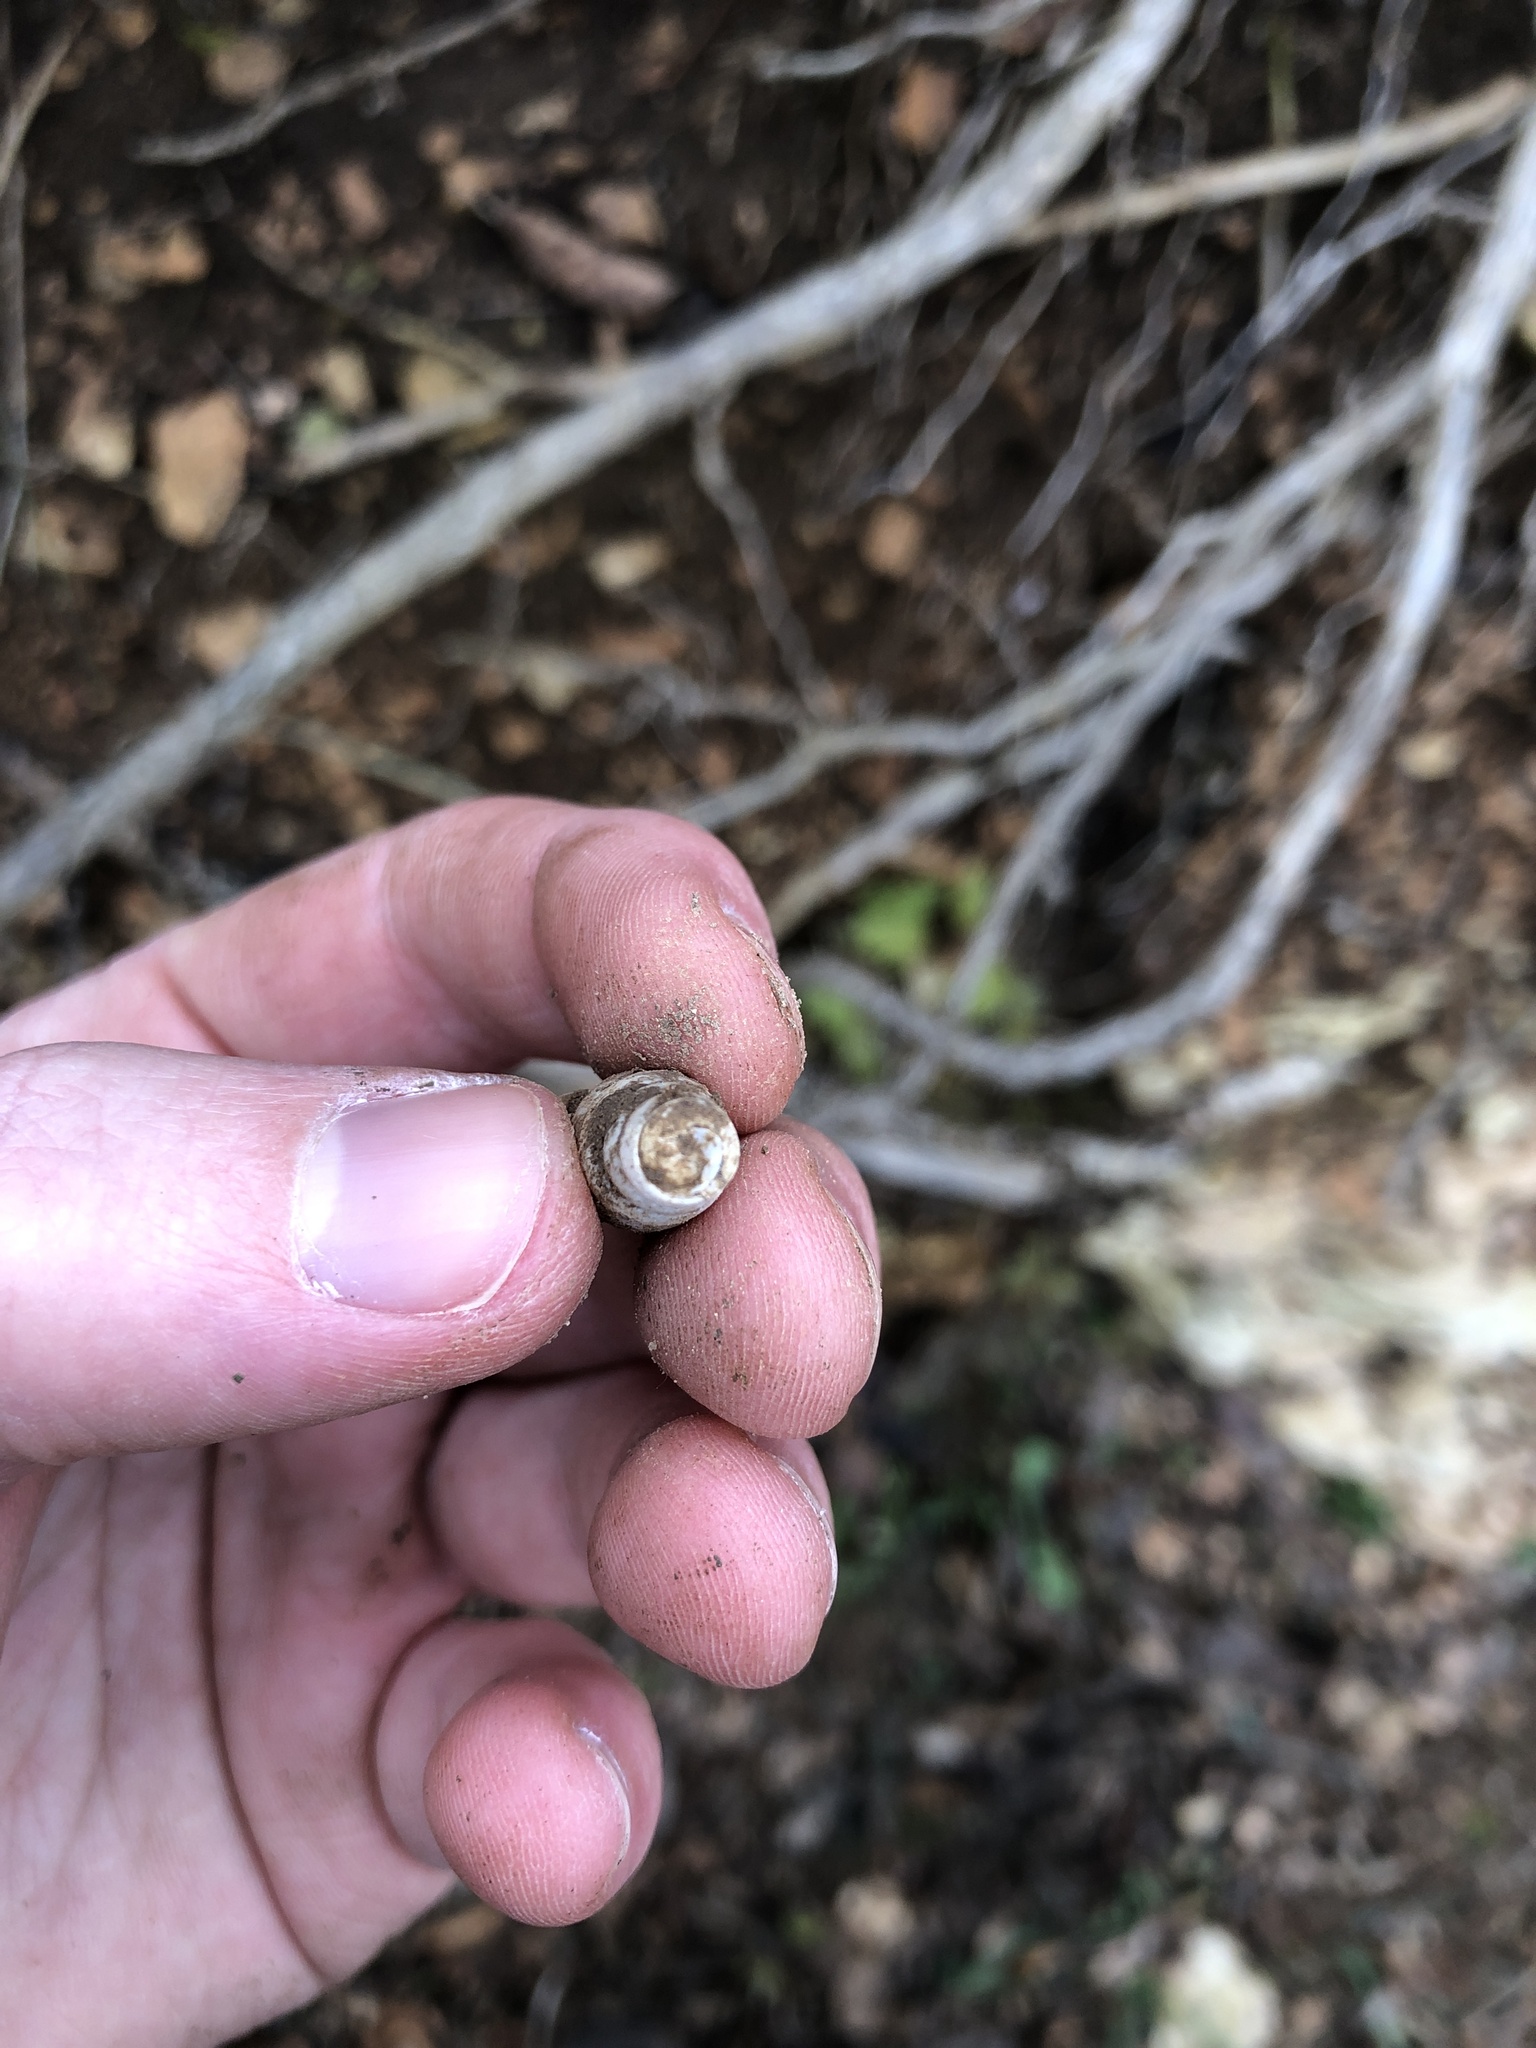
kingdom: Animalia
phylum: Mollusca
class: Gastropoda
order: Stylommatophora
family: Achatinidae
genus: Rumina
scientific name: Rumina decollata
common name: Decollate snail
